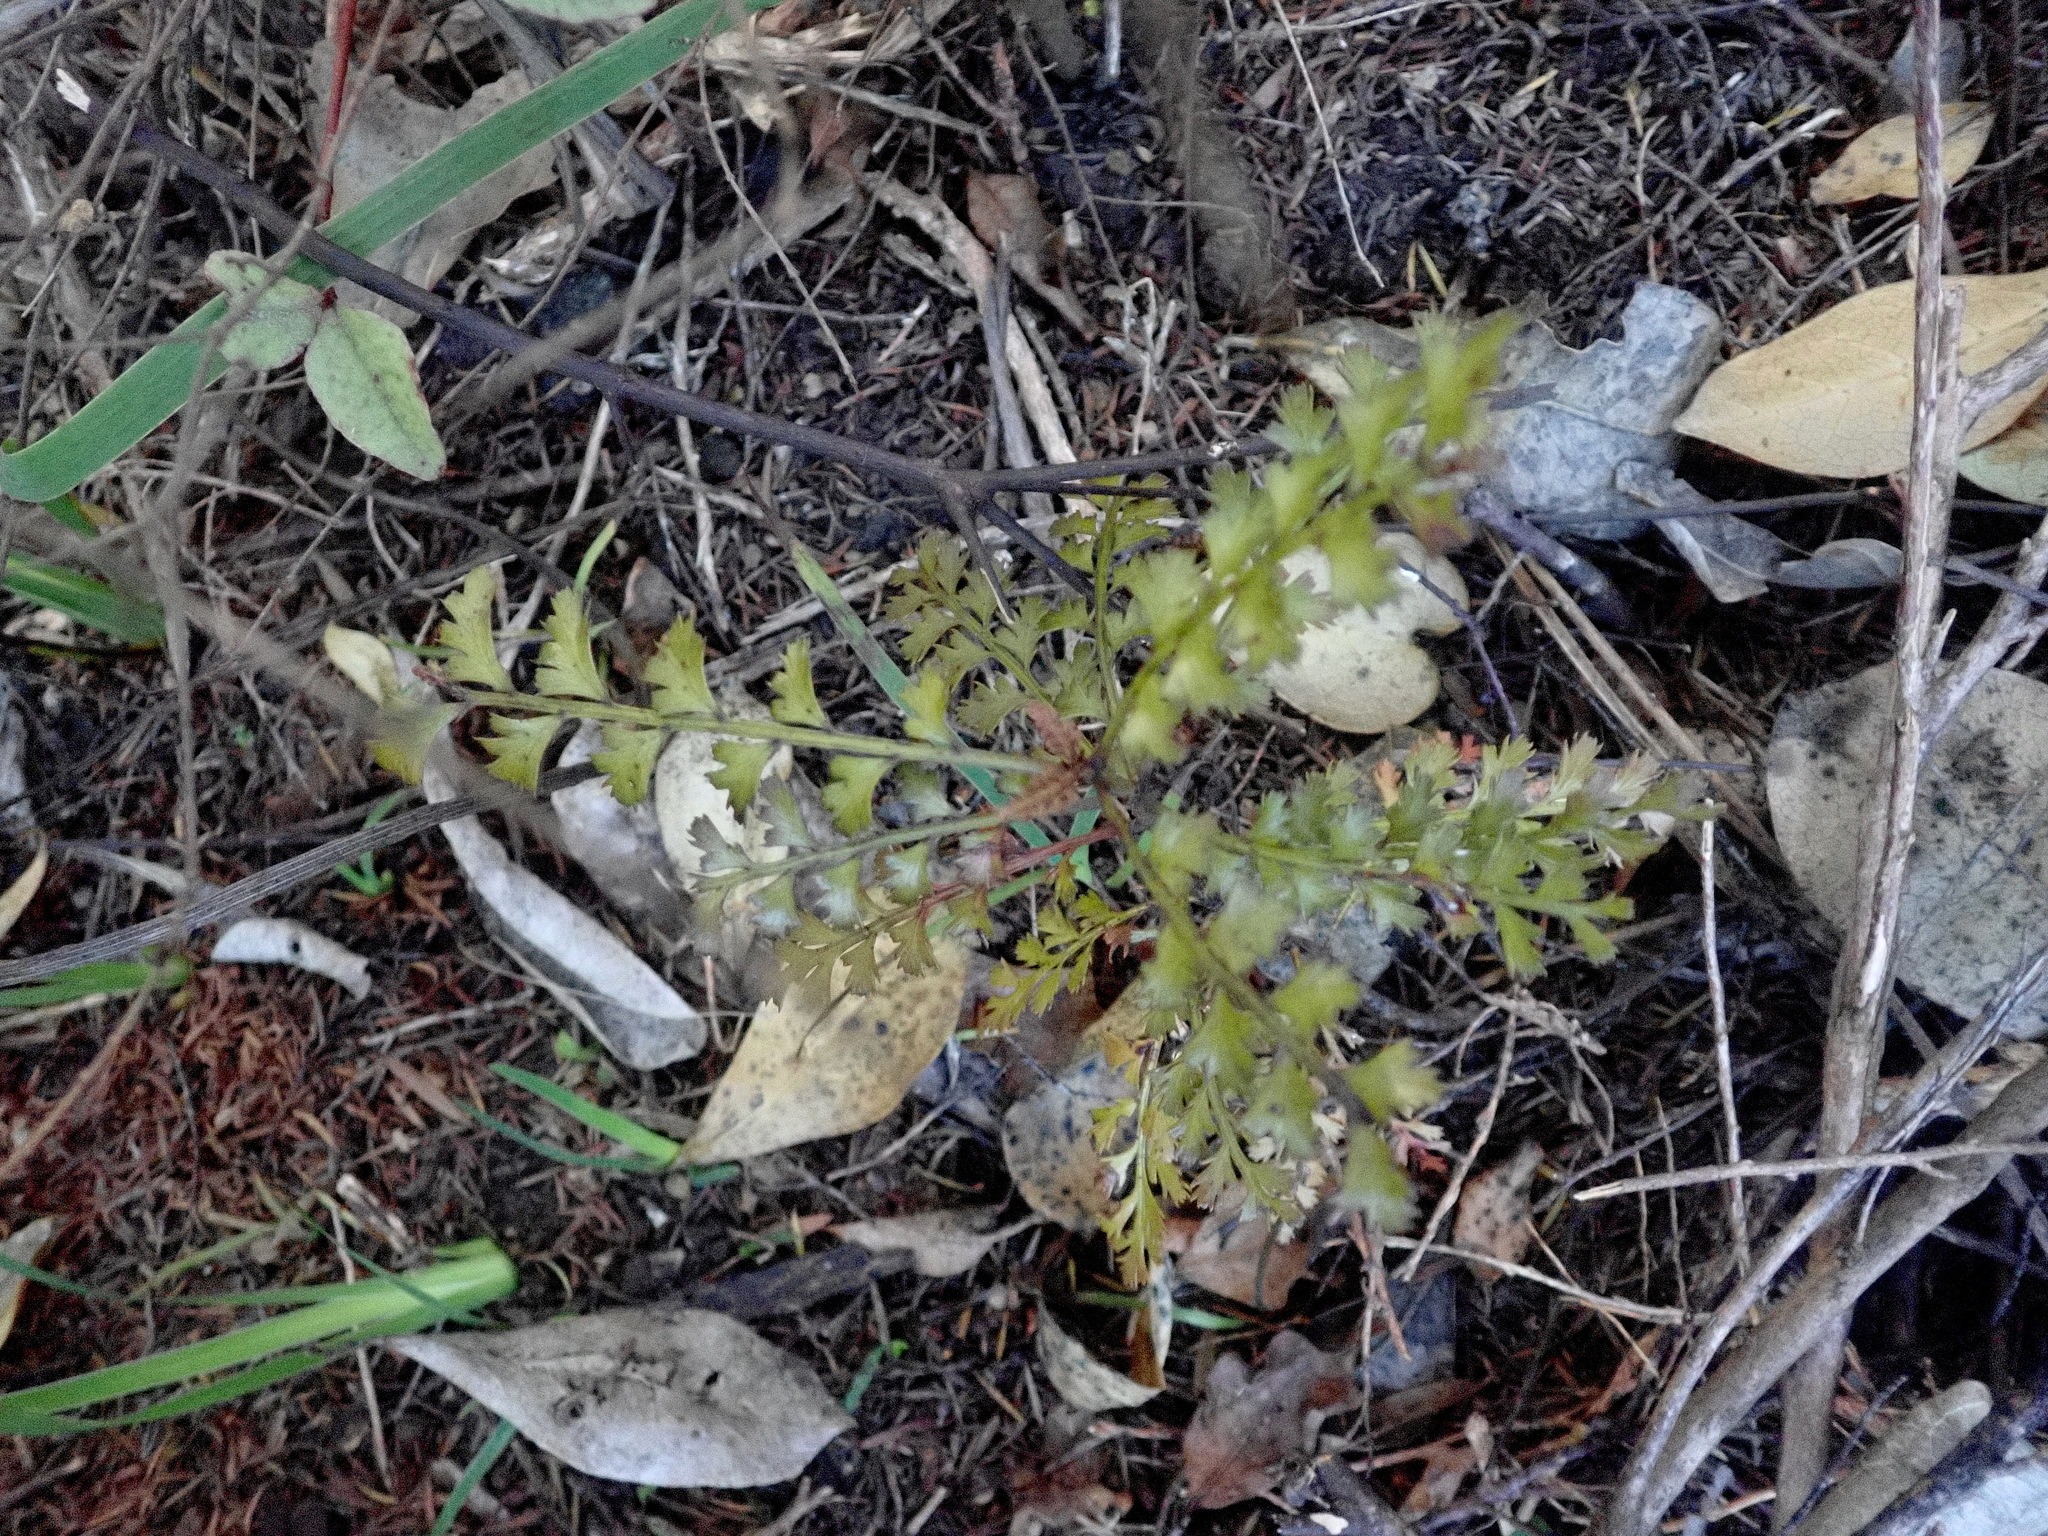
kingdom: Plantae
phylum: Tracheophyta
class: Pinopsida
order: Pinales
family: Phyllocladaceae
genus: Phyllocladus
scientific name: Phyllocladus trichomanoides
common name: Celery pine
